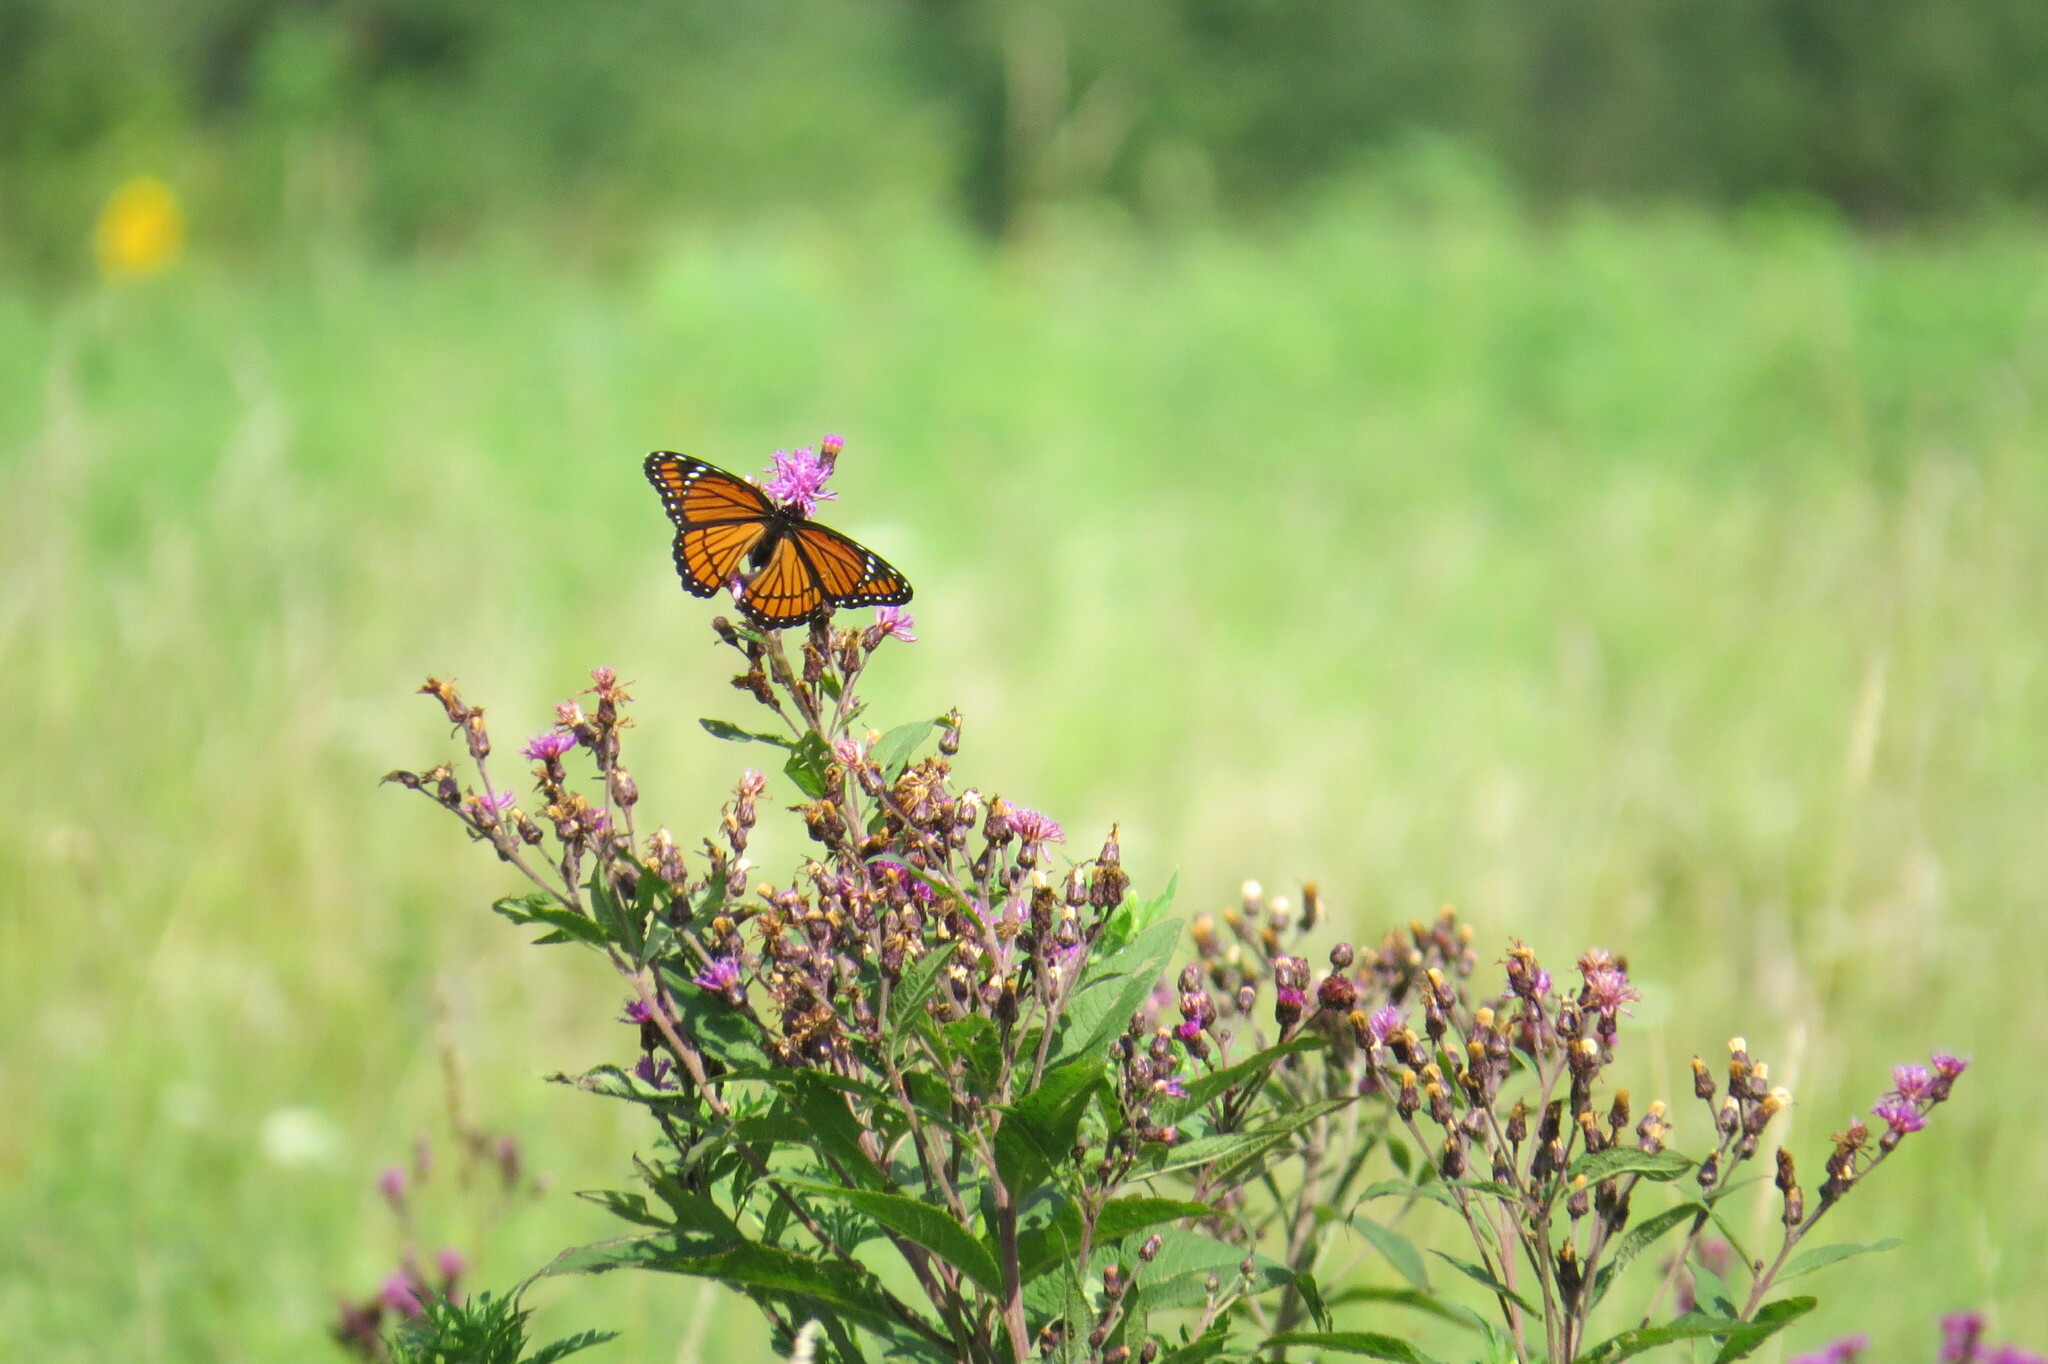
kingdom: Animalia
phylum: Arthropoda
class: Insecta
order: Lepidoptera
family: Nymphalidae
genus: Limenitis
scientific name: Limenitis archippus
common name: Viceroy
